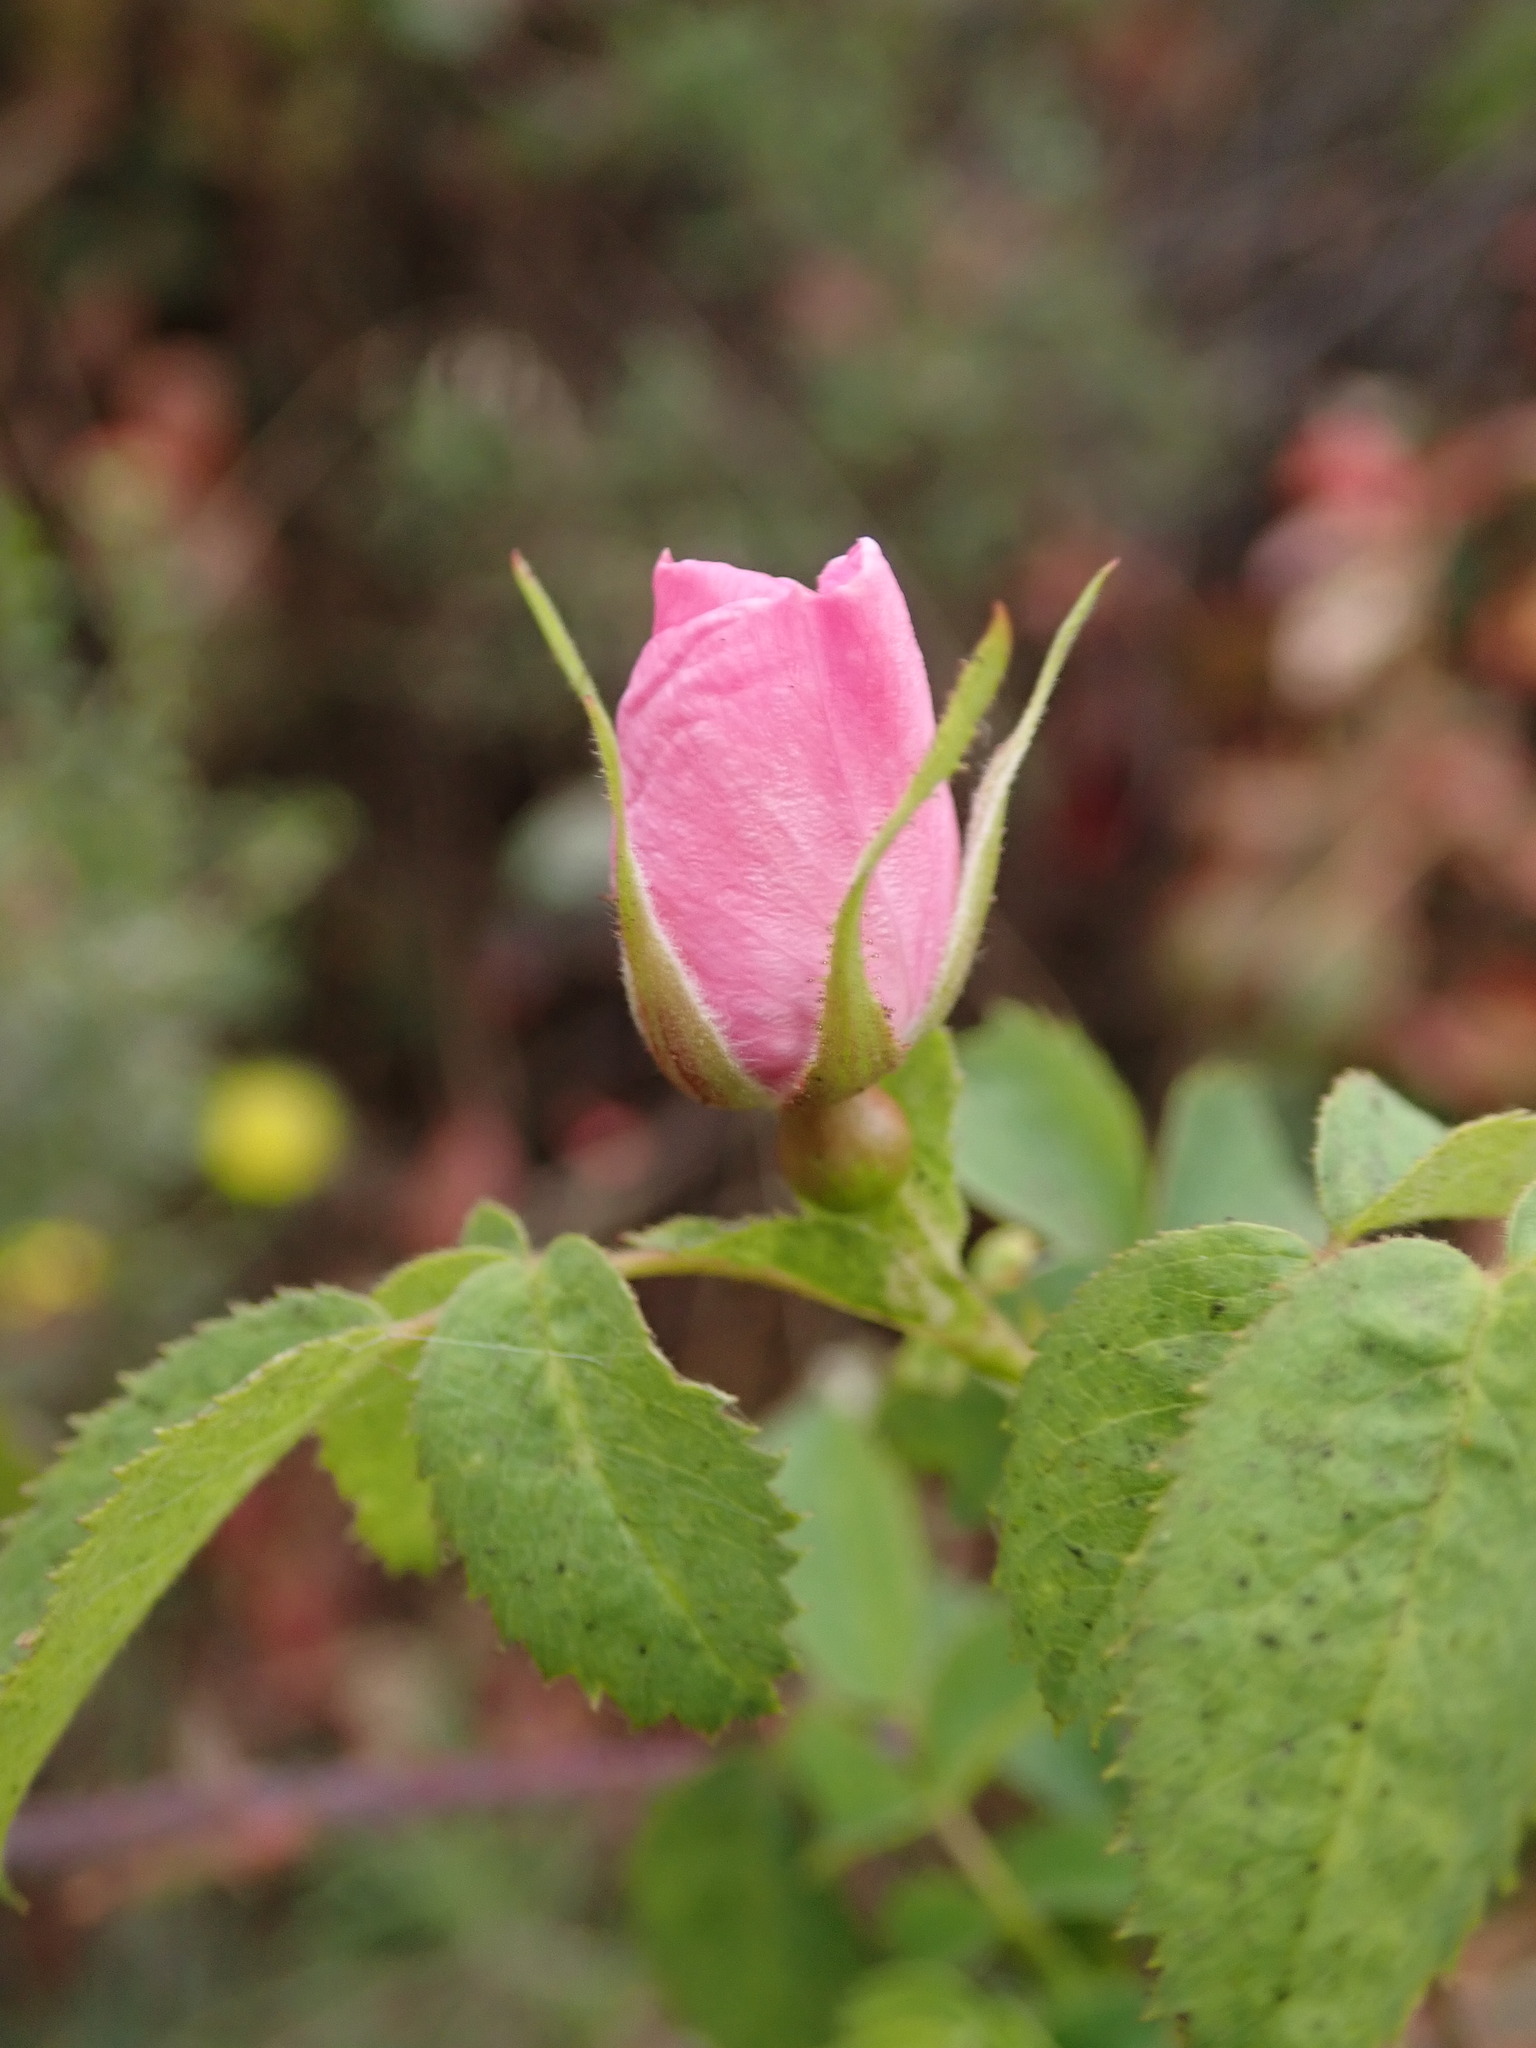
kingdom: Plantae
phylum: Tracheophyta
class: Magnoliopsida
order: Rosales
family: Rosaceae
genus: Rosa
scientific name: Rosa californica
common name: California rose
